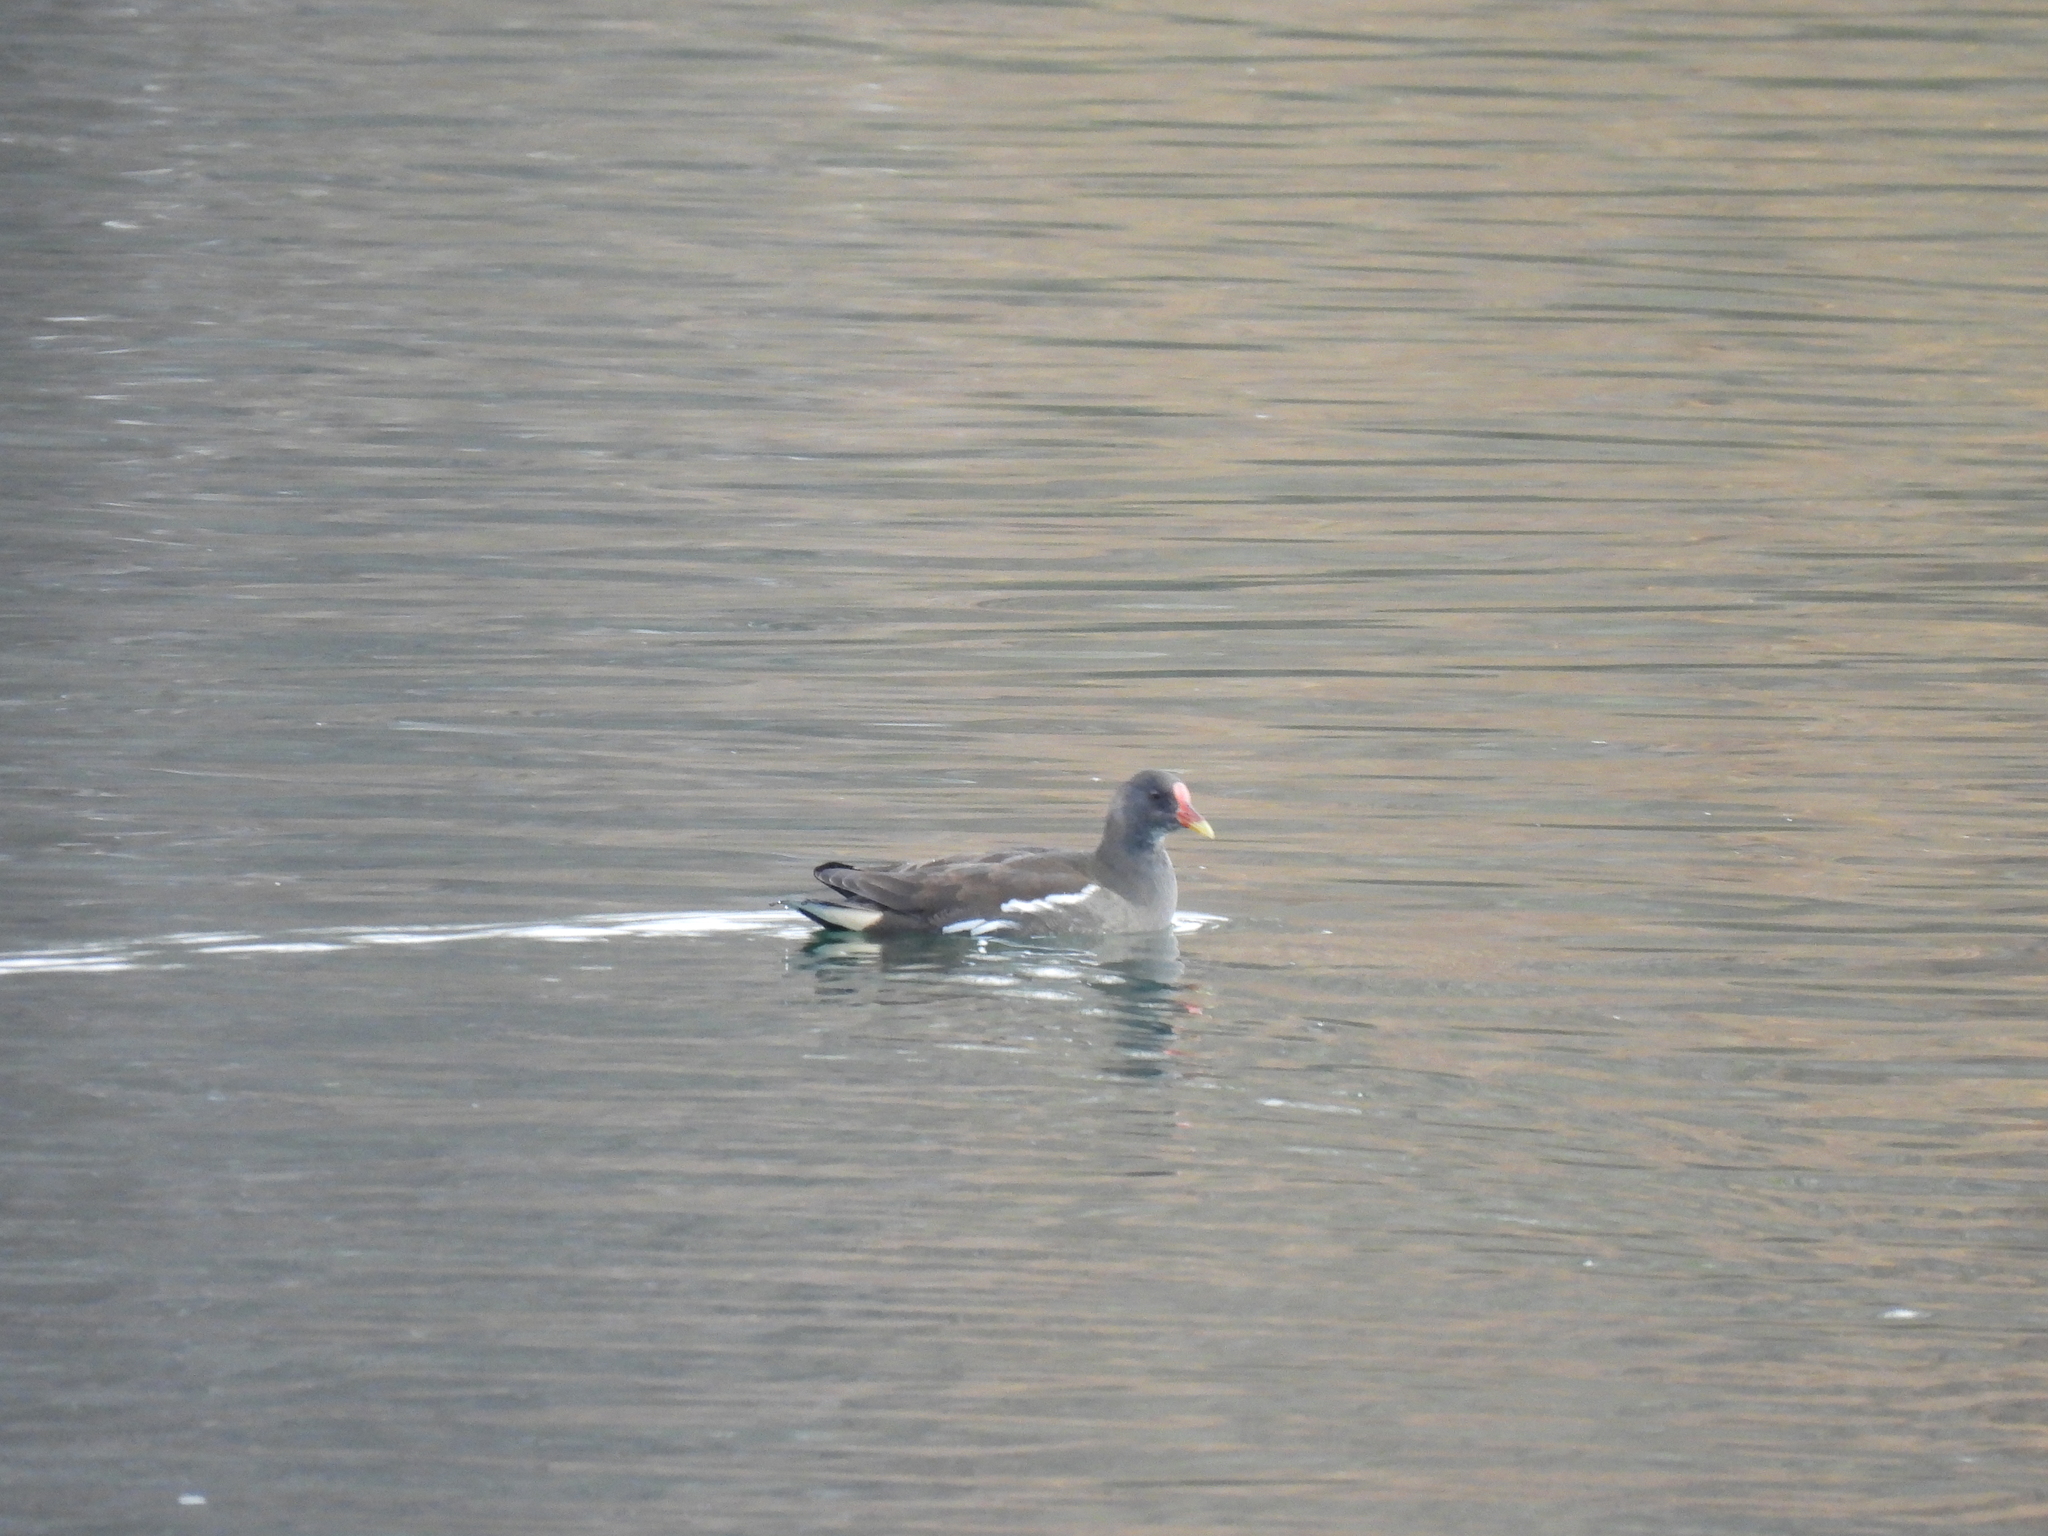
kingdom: Animalia
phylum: Chordata
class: Aves
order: Gruiformes
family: Rallidae
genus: Gallinula
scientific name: Gallinula chloropus
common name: Common moorhen
